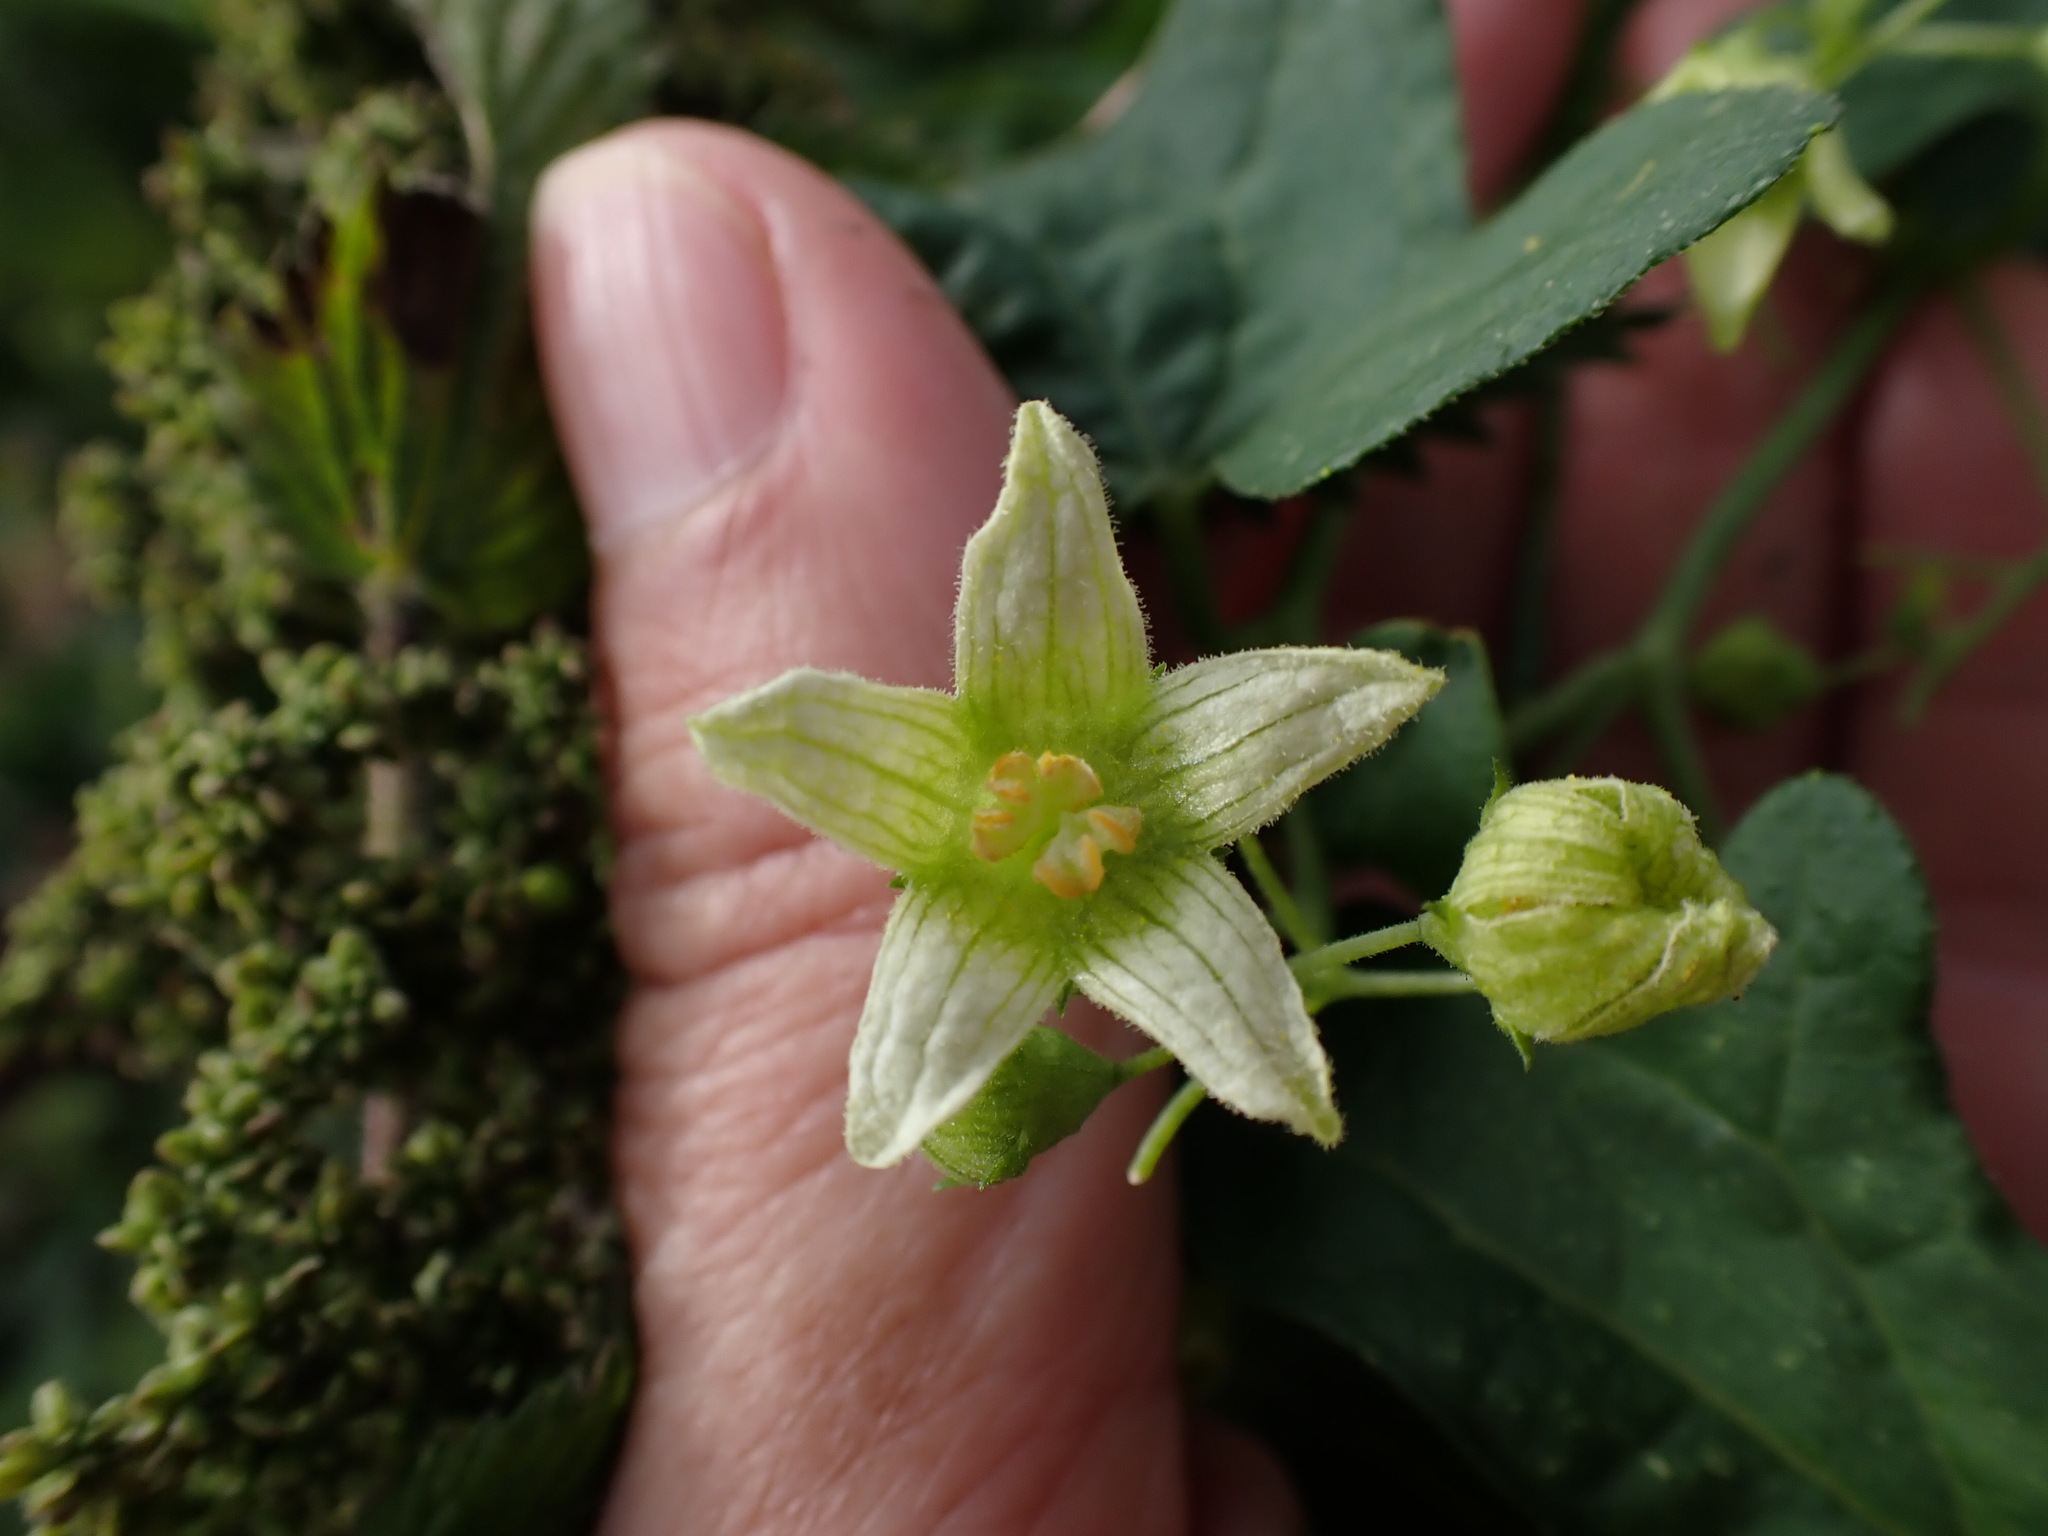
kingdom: Plantae
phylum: Tracheophyta
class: Magnoliopsida
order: Cucurbitales
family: Cucurbitaceae
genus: Bryonia
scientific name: Bryonia cretica
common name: Cretan bryony
